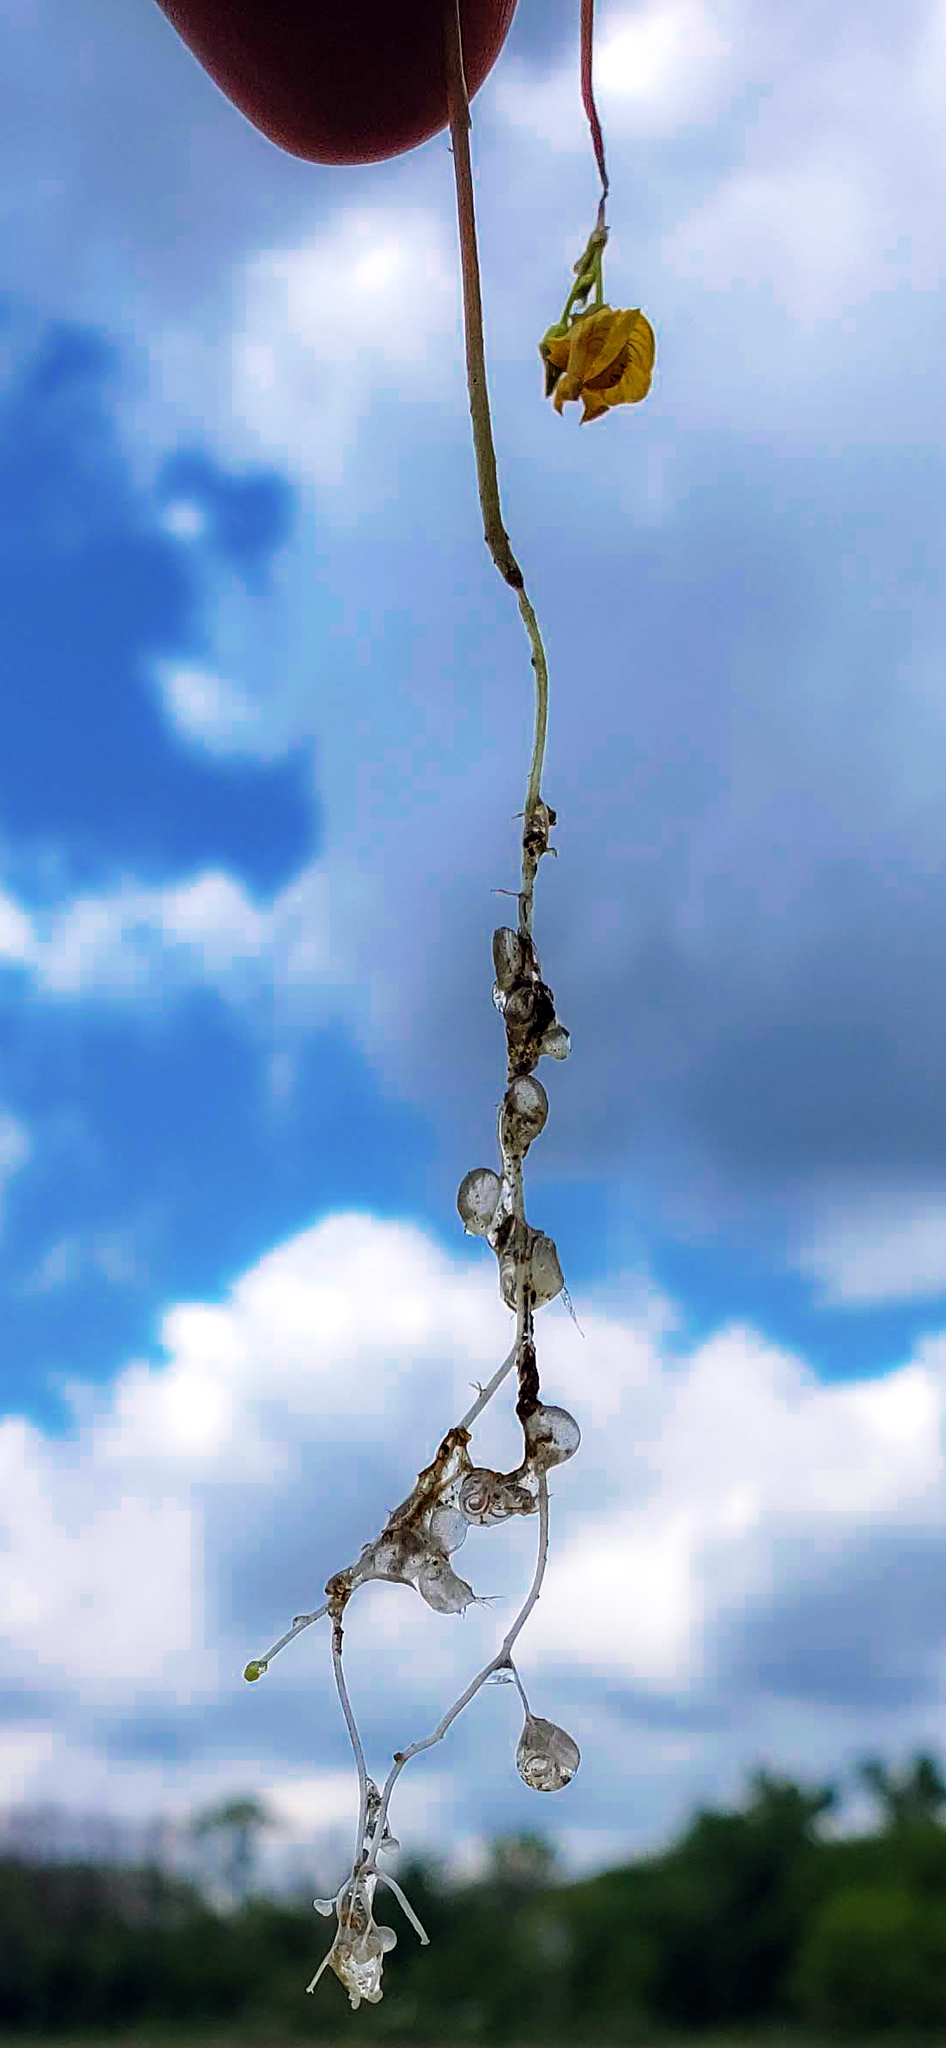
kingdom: Plantae
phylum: Tracheophyta
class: Magnoliopsida
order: Lamiales
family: Lentibulariaceae
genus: Utricularia
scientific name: Utricularia intermedia
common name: Intermediate bladderwort
